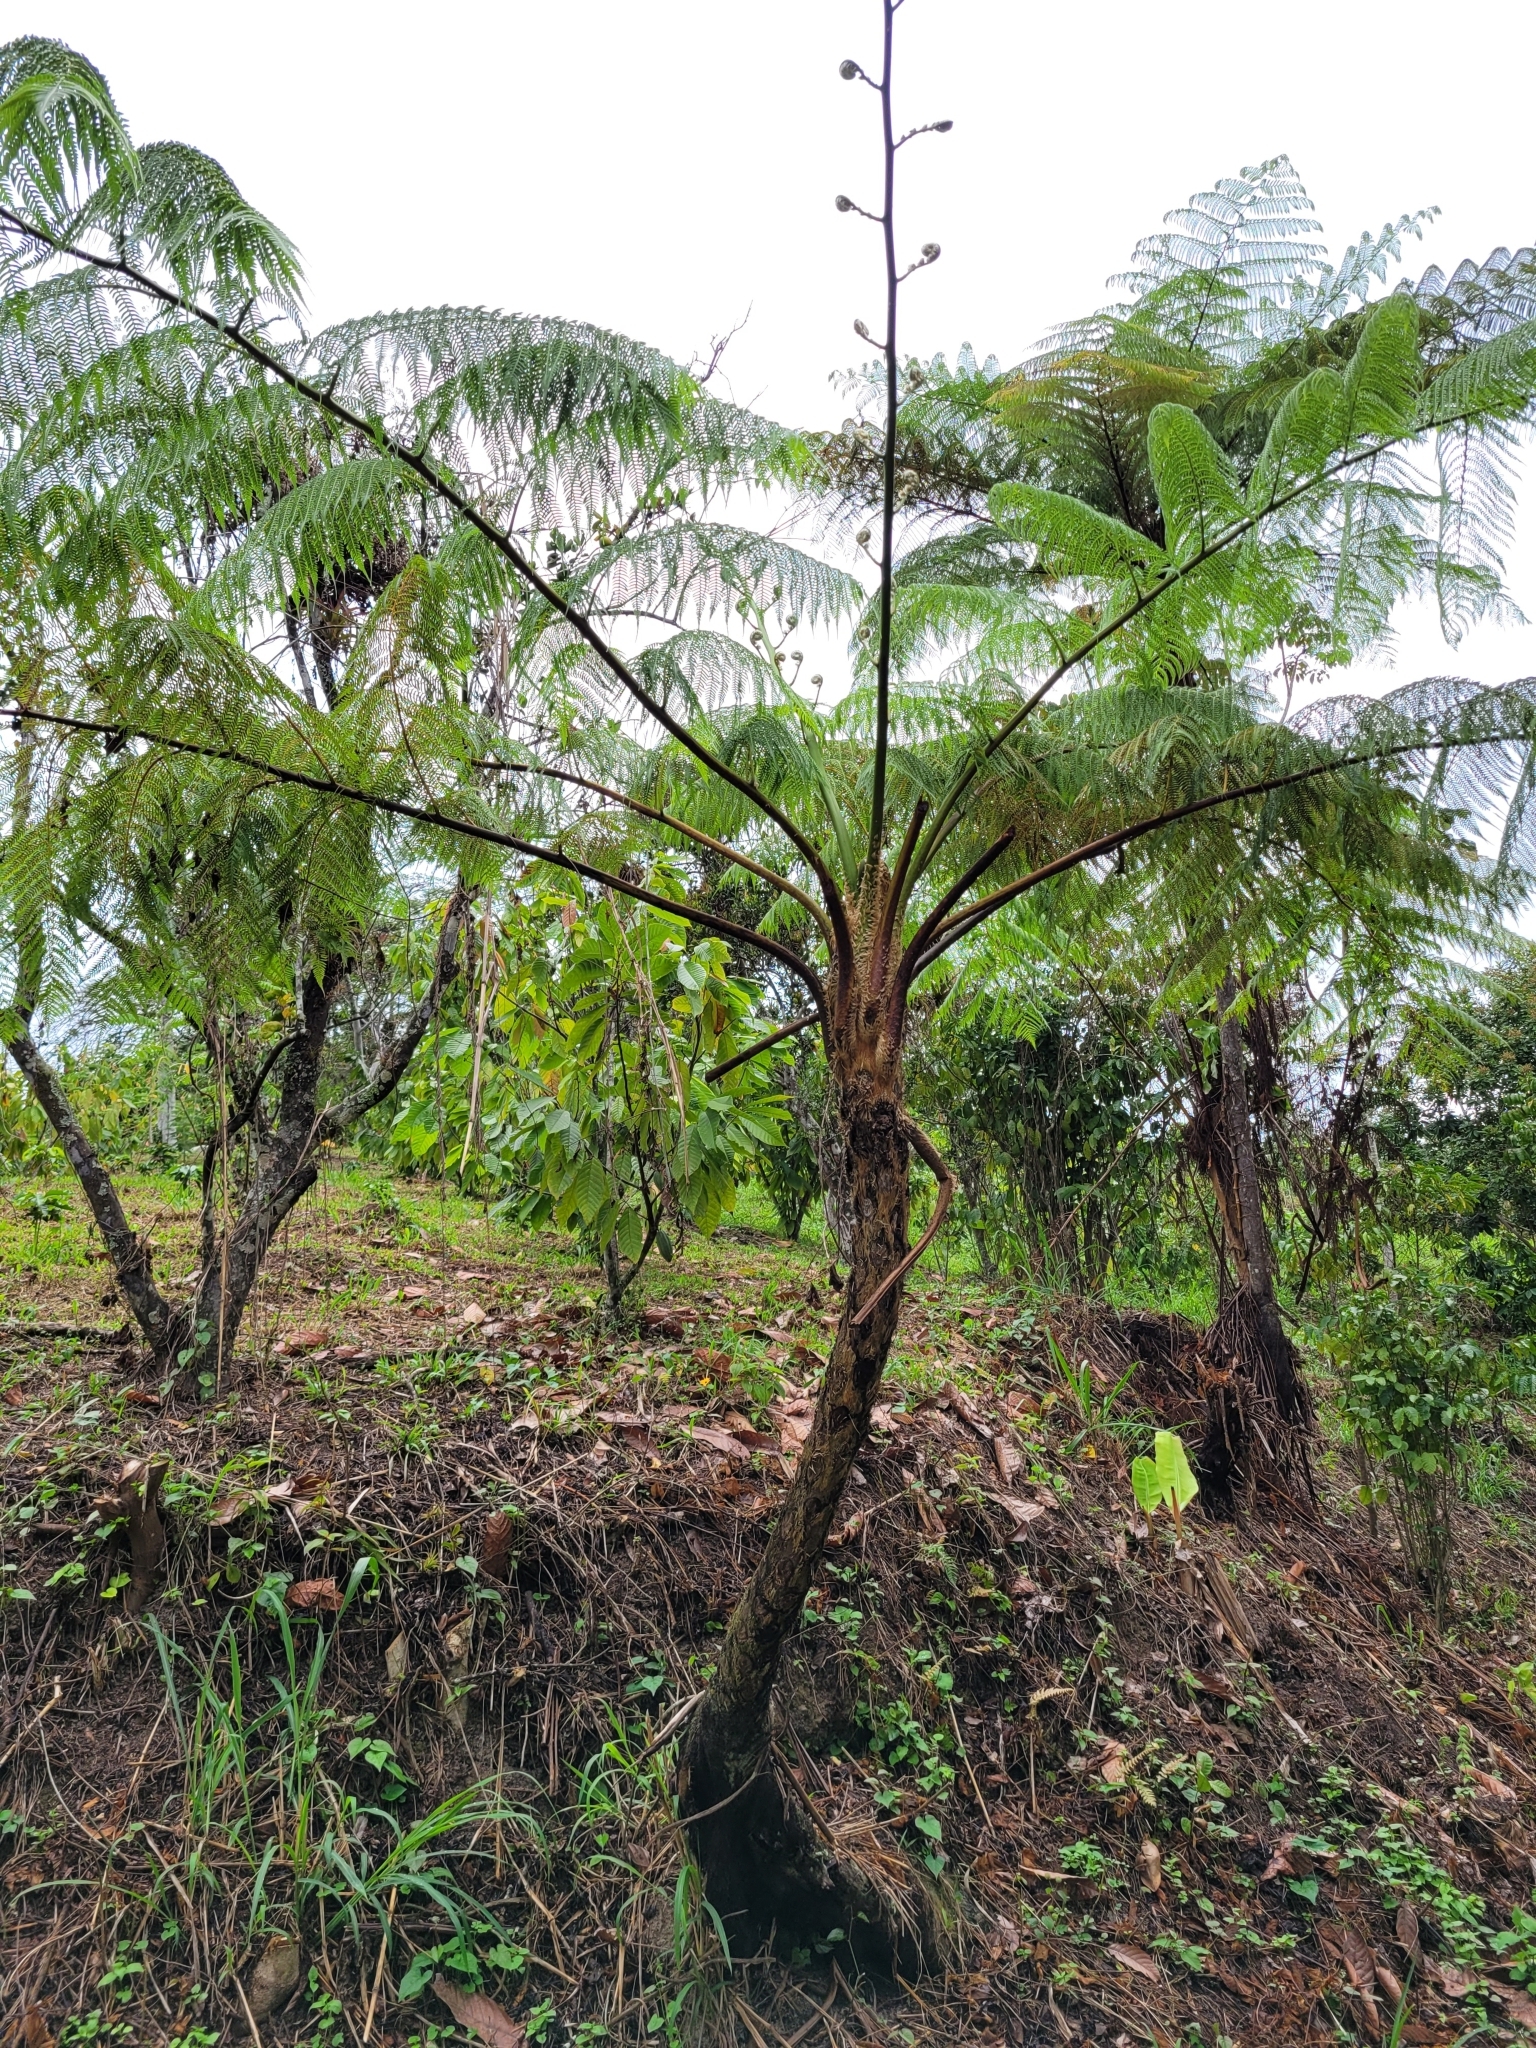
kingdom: Plantae
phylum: Tracheophyta
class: Polypodiopsida
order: Cyatheales
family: Cyatheaceae
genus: Cyathea
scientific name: Cyathea arborea
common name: West indian treefern
